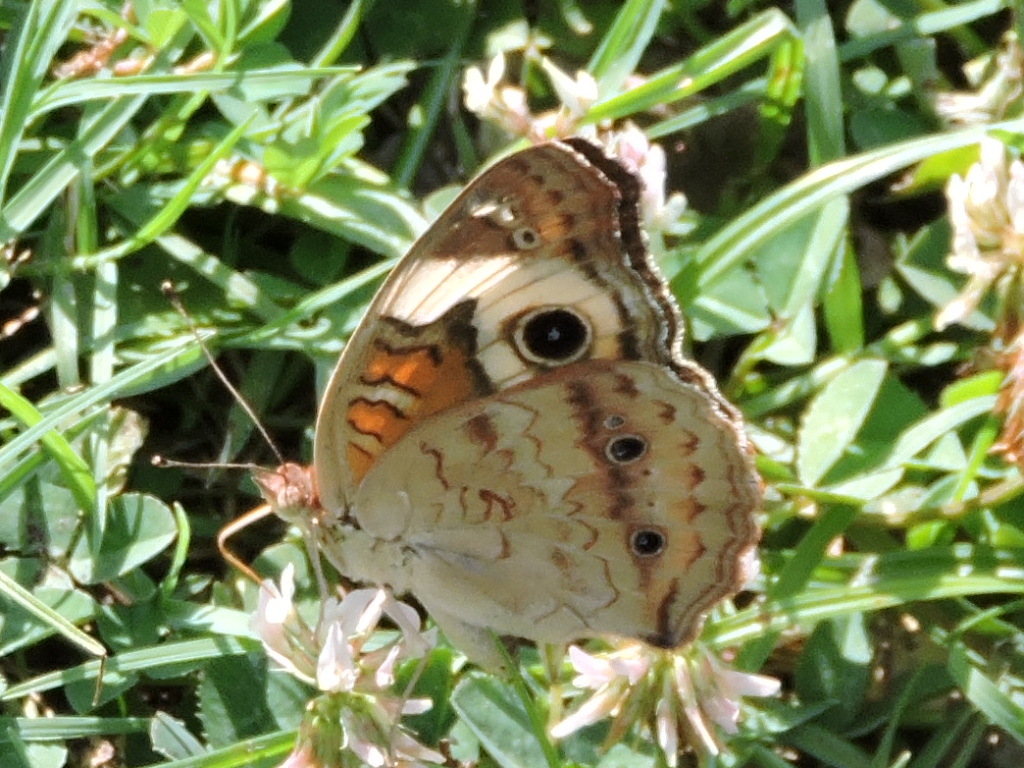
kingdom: Animalia
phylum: Arthropoda
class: Insecta
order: Lepidoptera
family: Nymphalidae
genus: Junonia
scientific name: Junonia coenia
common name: Common buckeye
